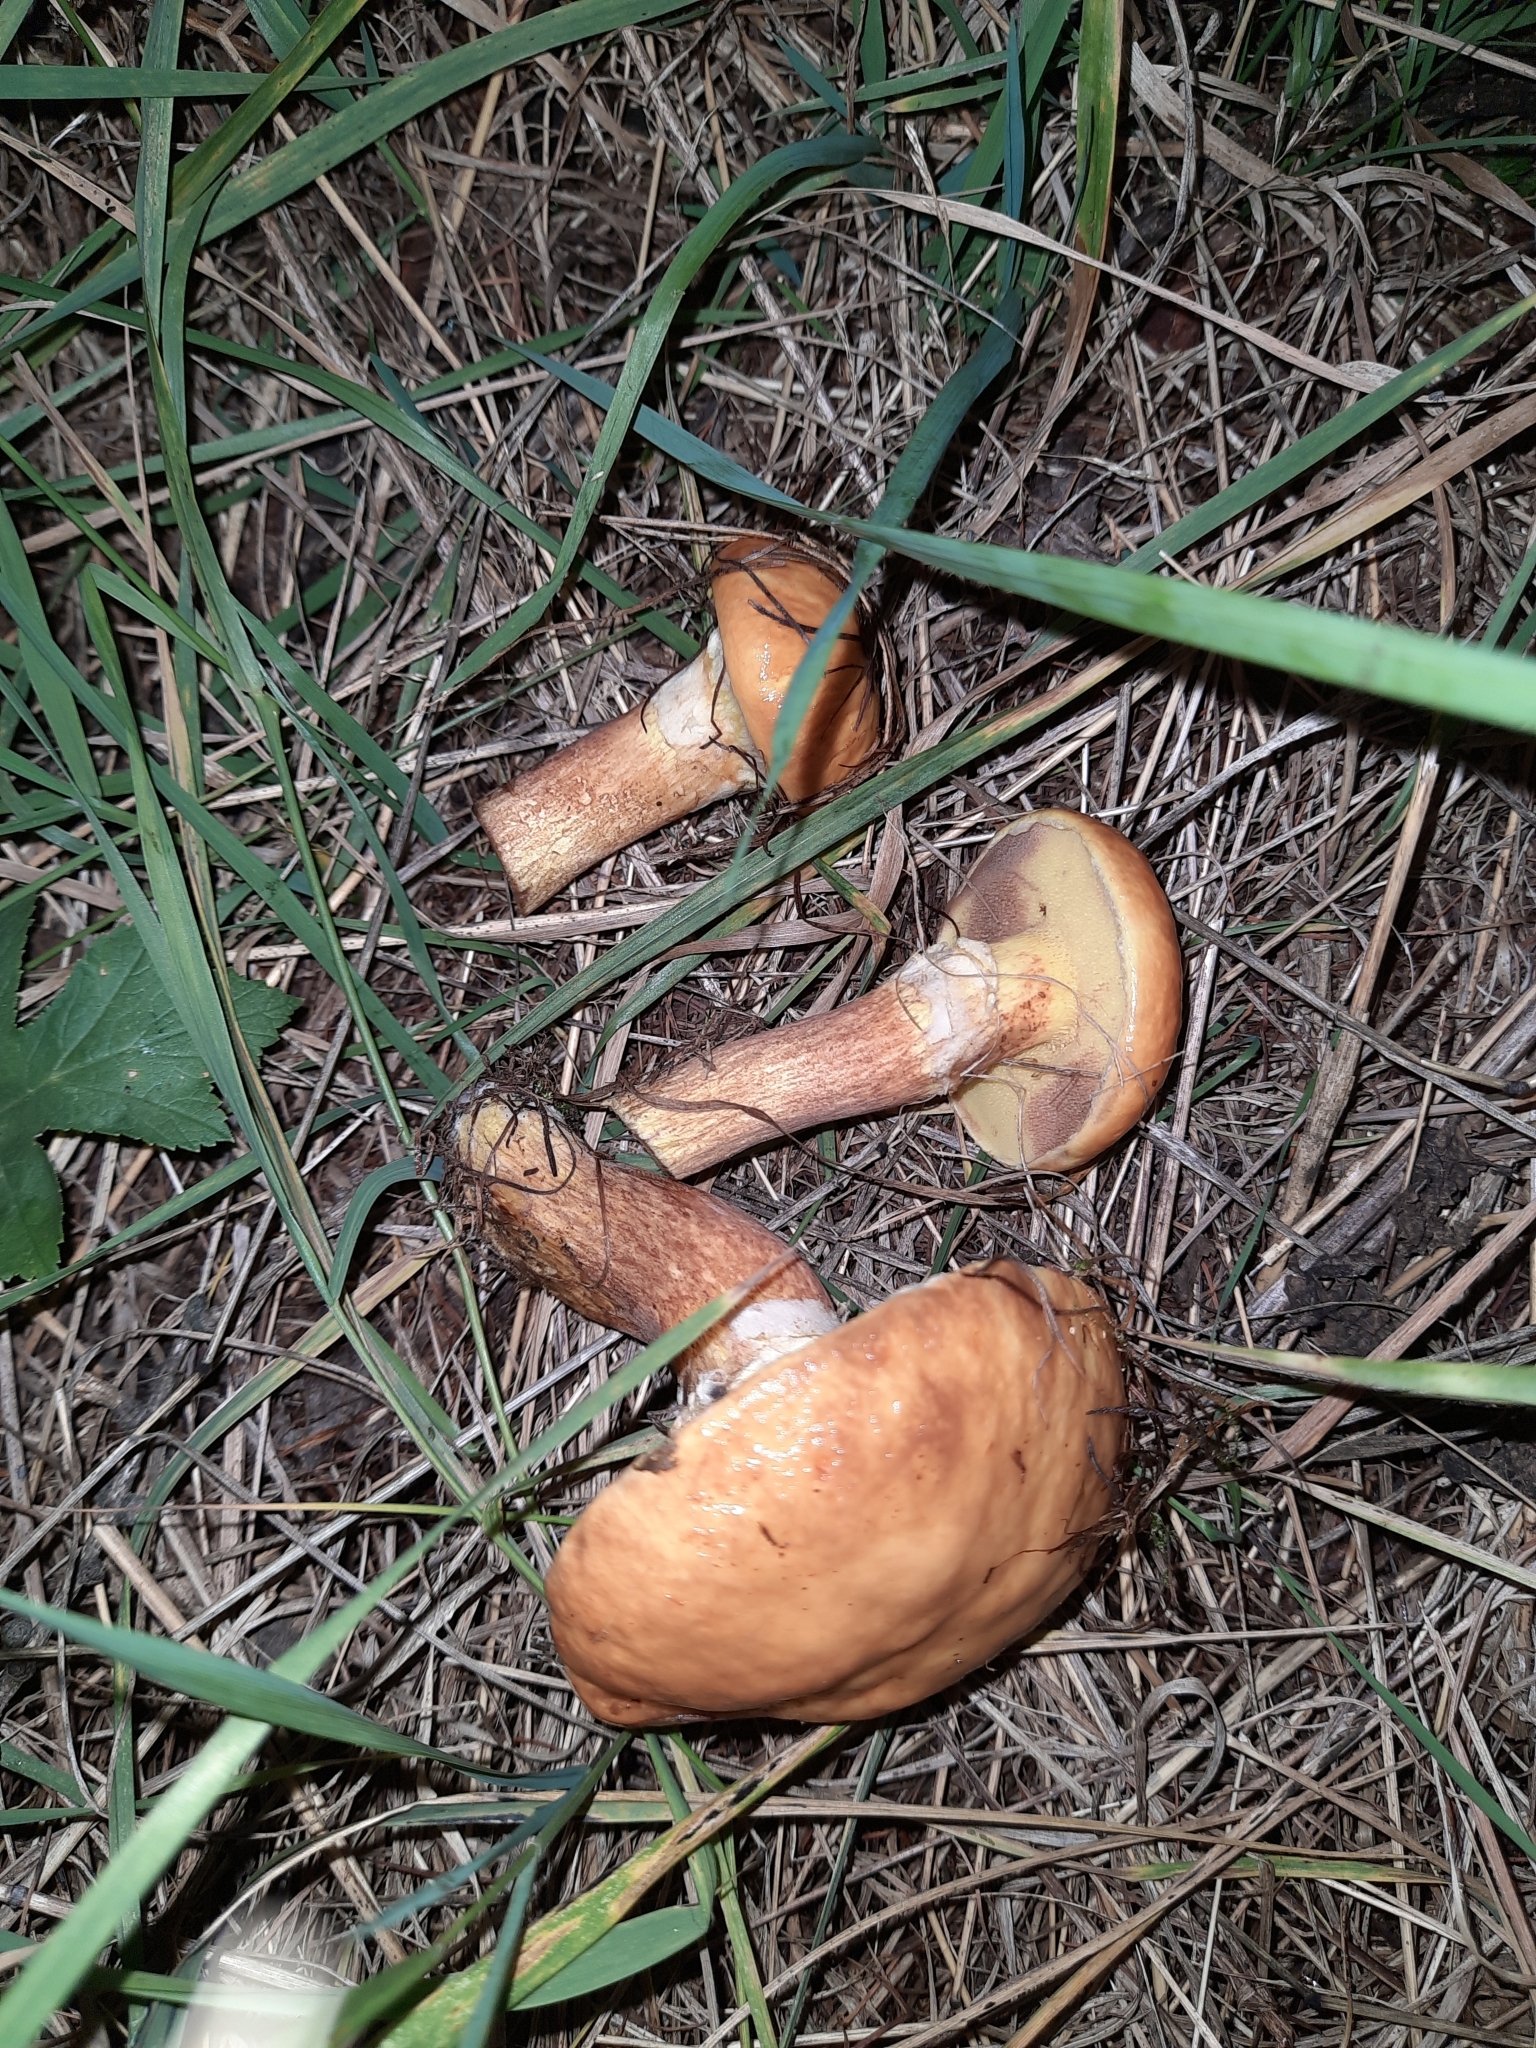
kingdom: Fungi
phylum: Basidiomycota
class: Agaricomycetes
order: Boletales
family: Suillaceae
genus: Suillus
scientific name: Suillus grevillei
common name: Larch bolete
